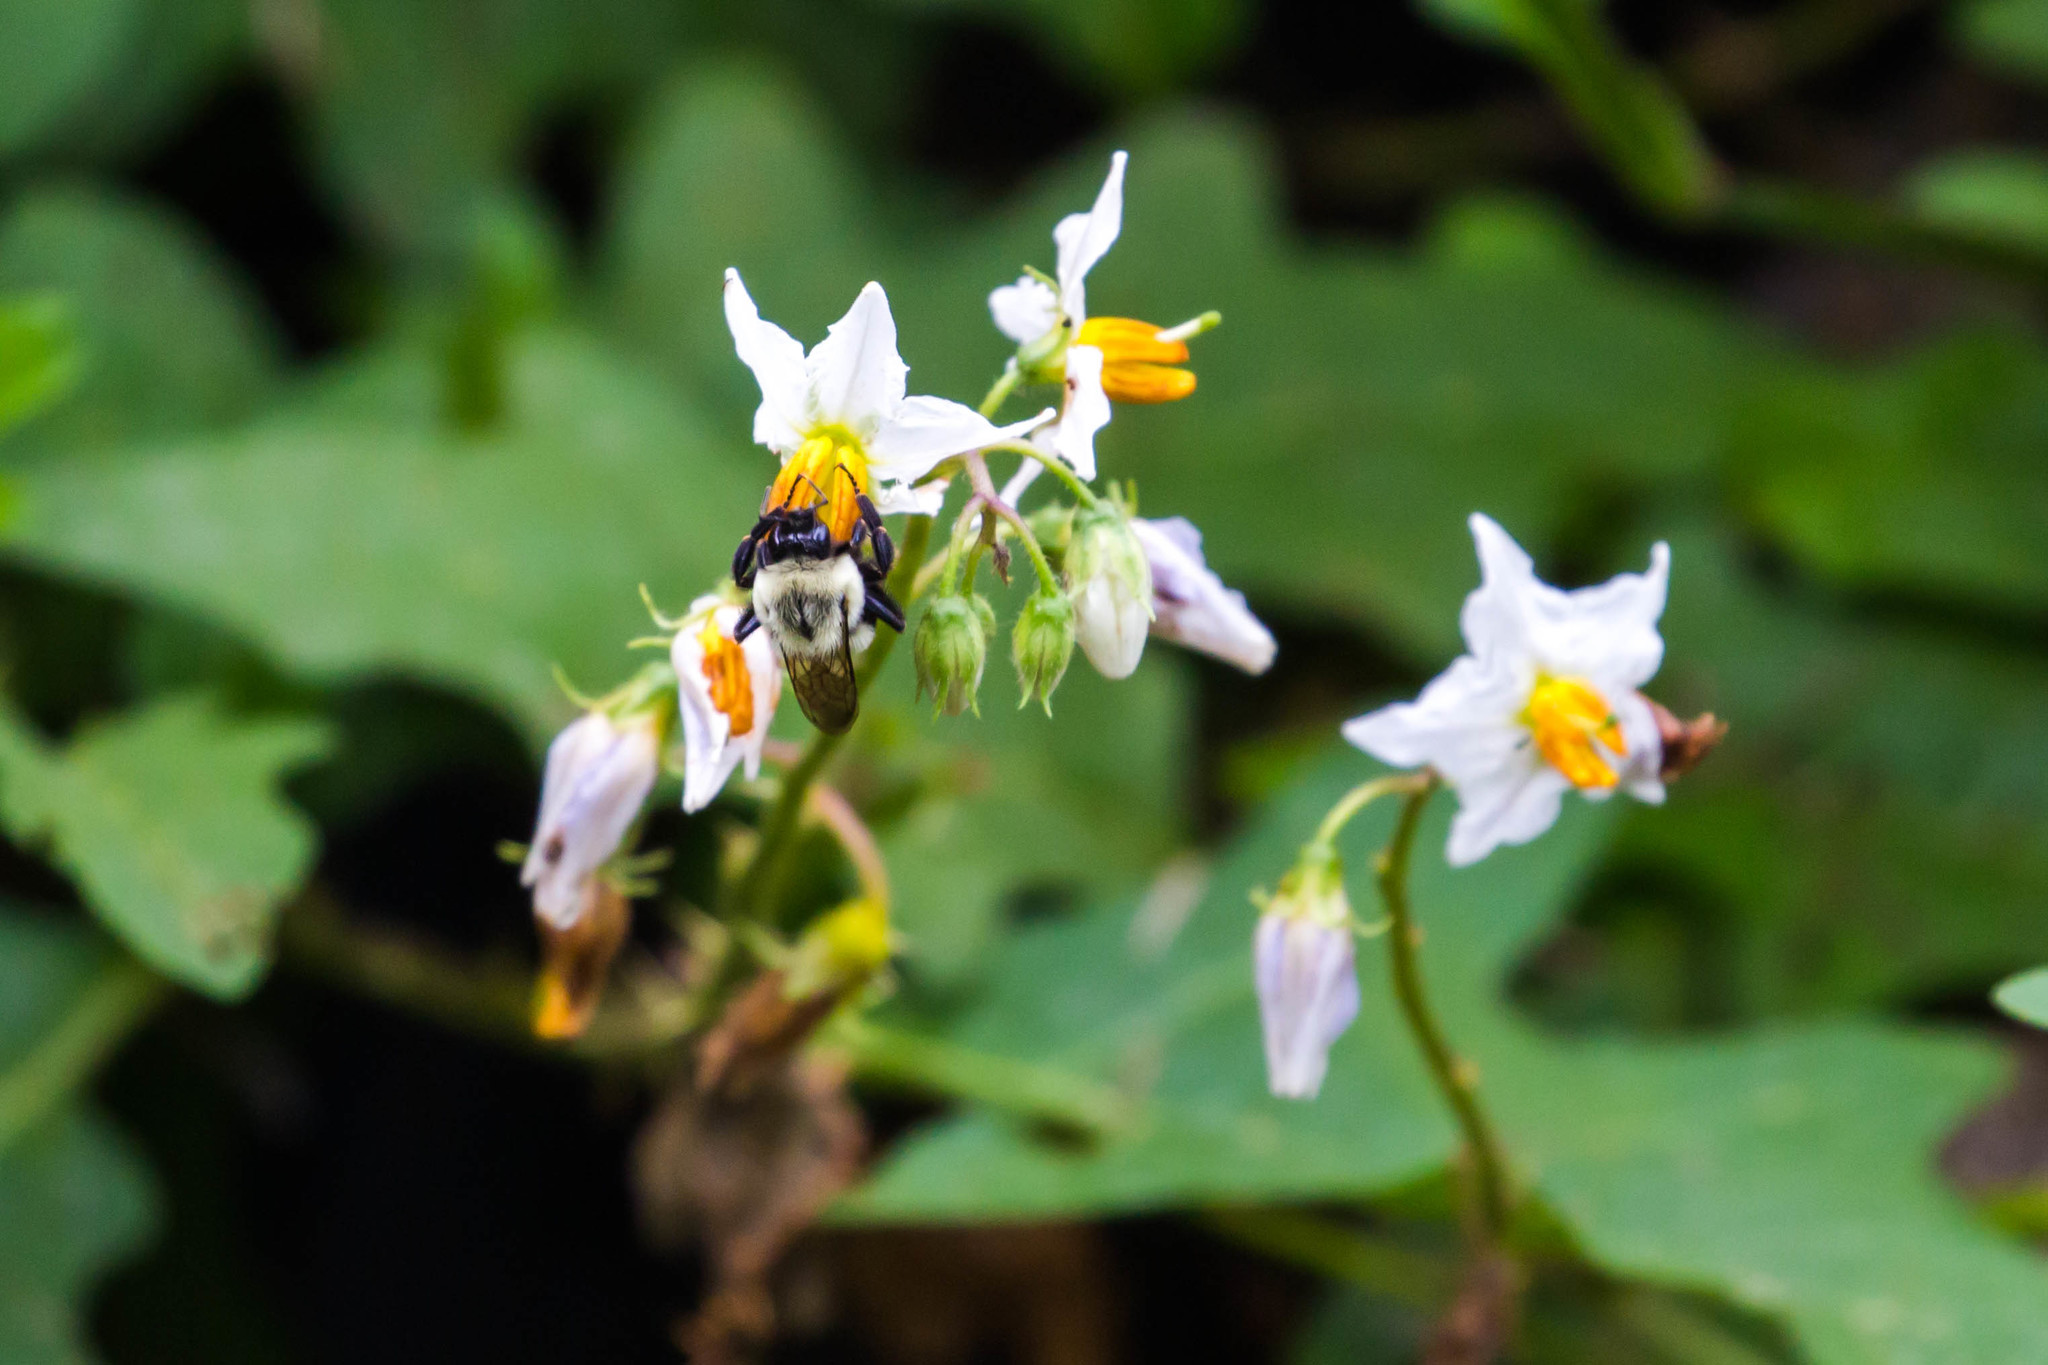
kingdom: Animalia
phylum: Arthropoda
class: Insecta
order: Hymenoptera
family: Apidae
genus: Bombus
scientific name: Bombus impatiens
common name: Common eastern bumble bee
